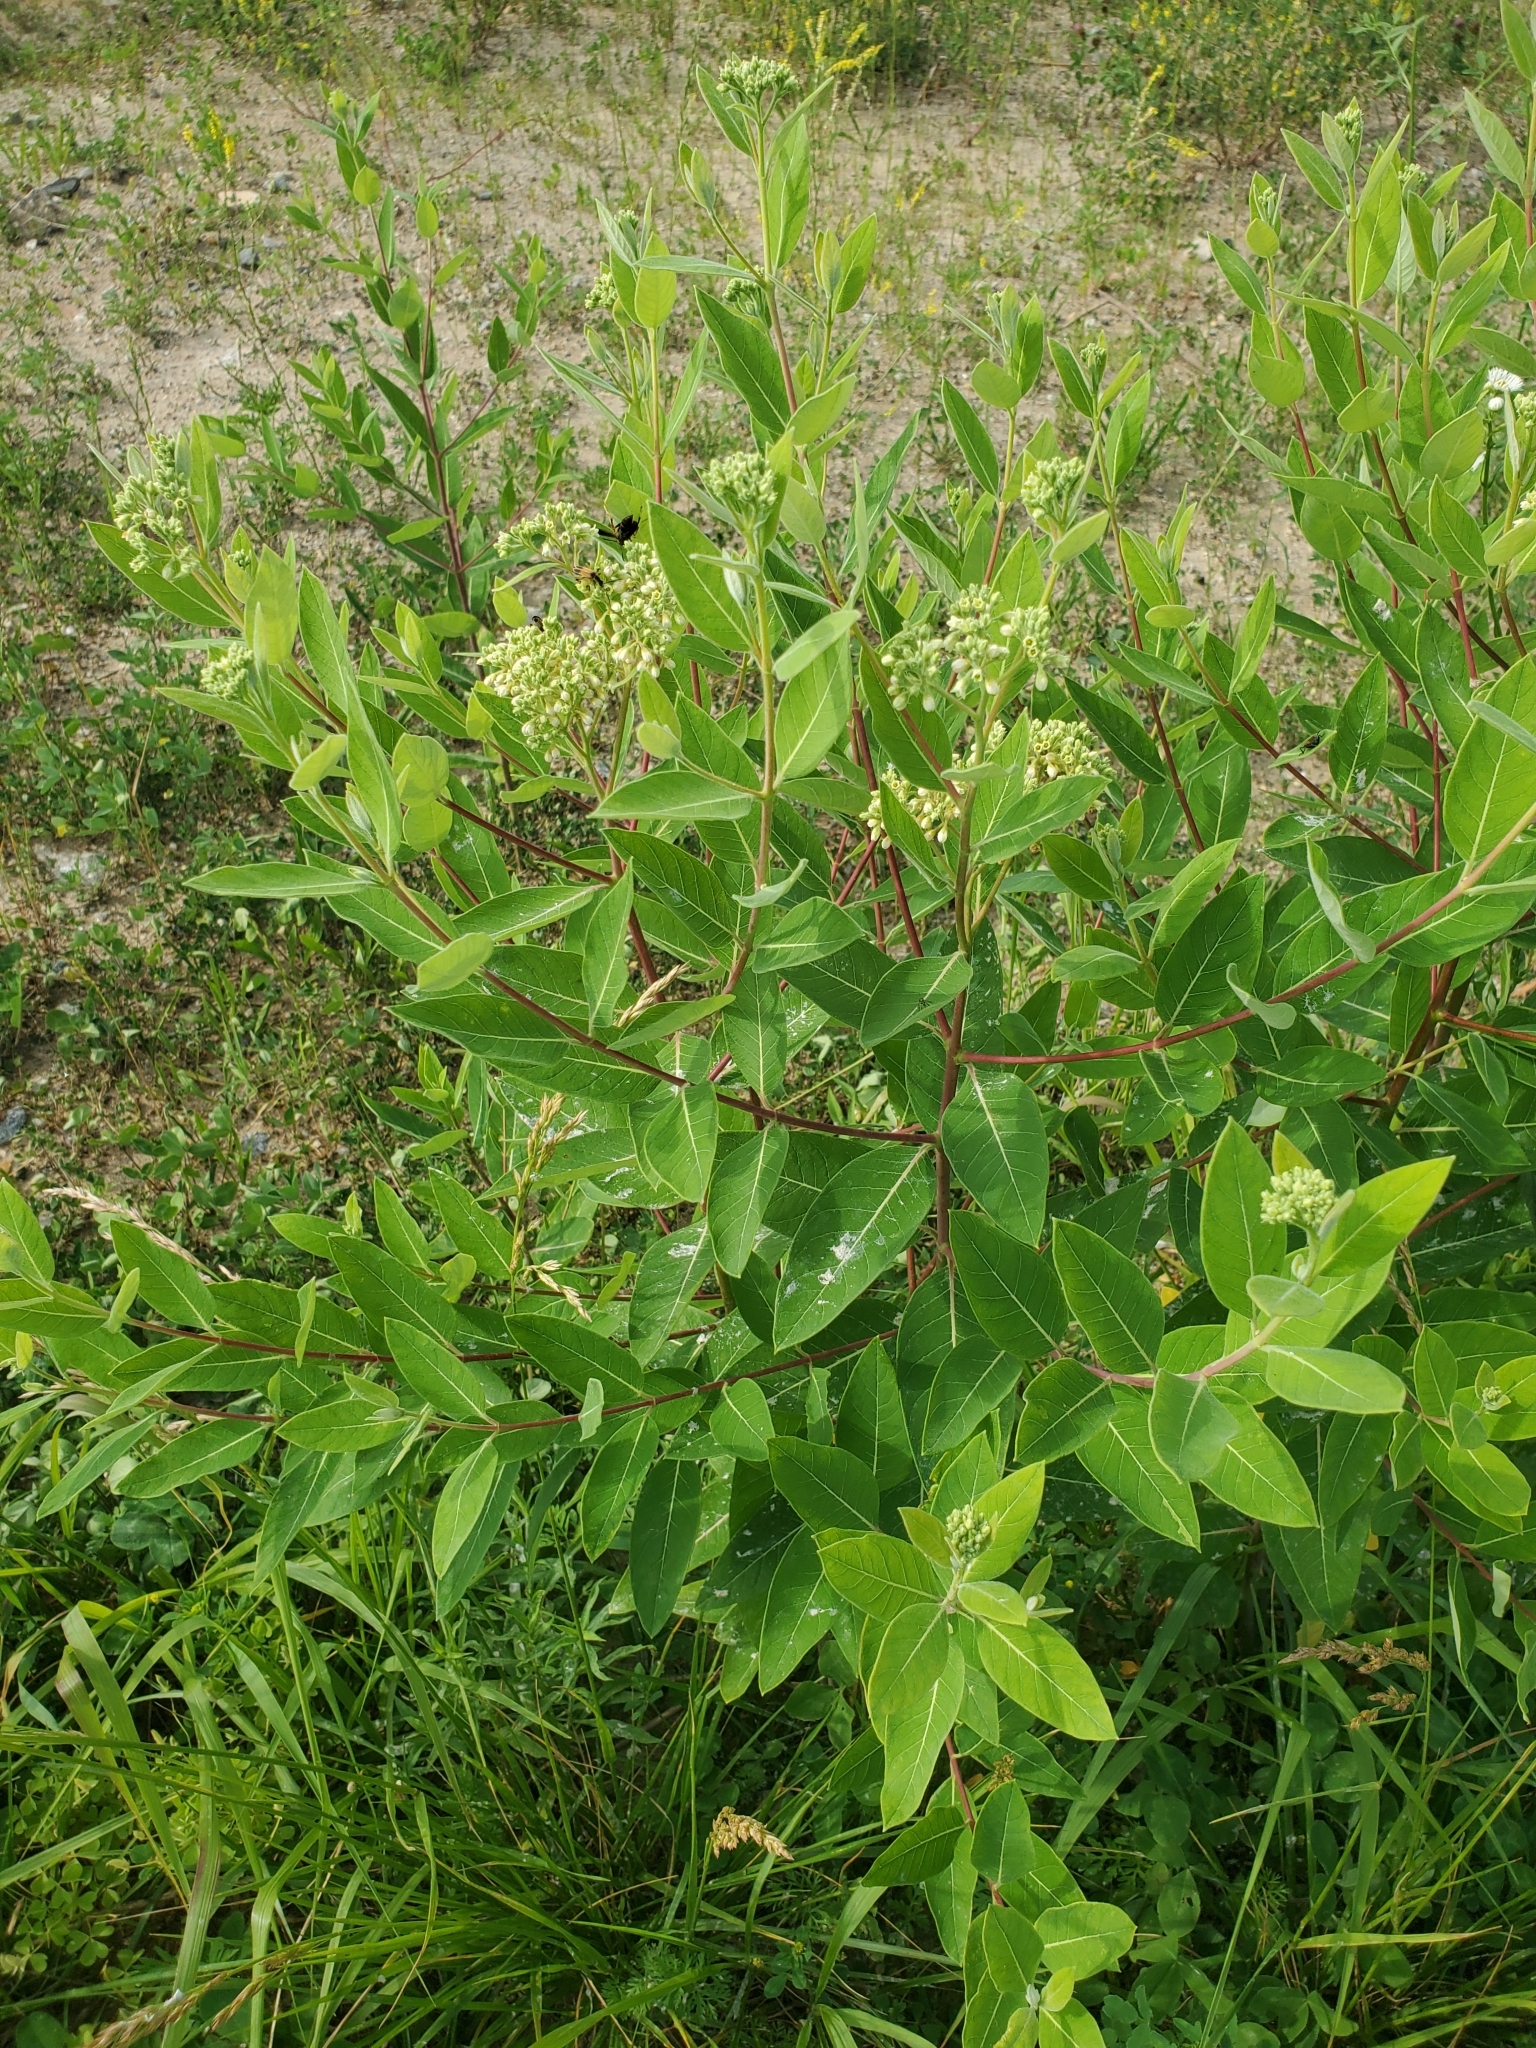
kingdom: Plantae
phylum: Tracheophyta
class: Magnoliopsida
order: Gentianales
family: Apocynaceae
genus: Apocynum
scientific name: Apocynum cannabinum
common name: Hemp dogbane
